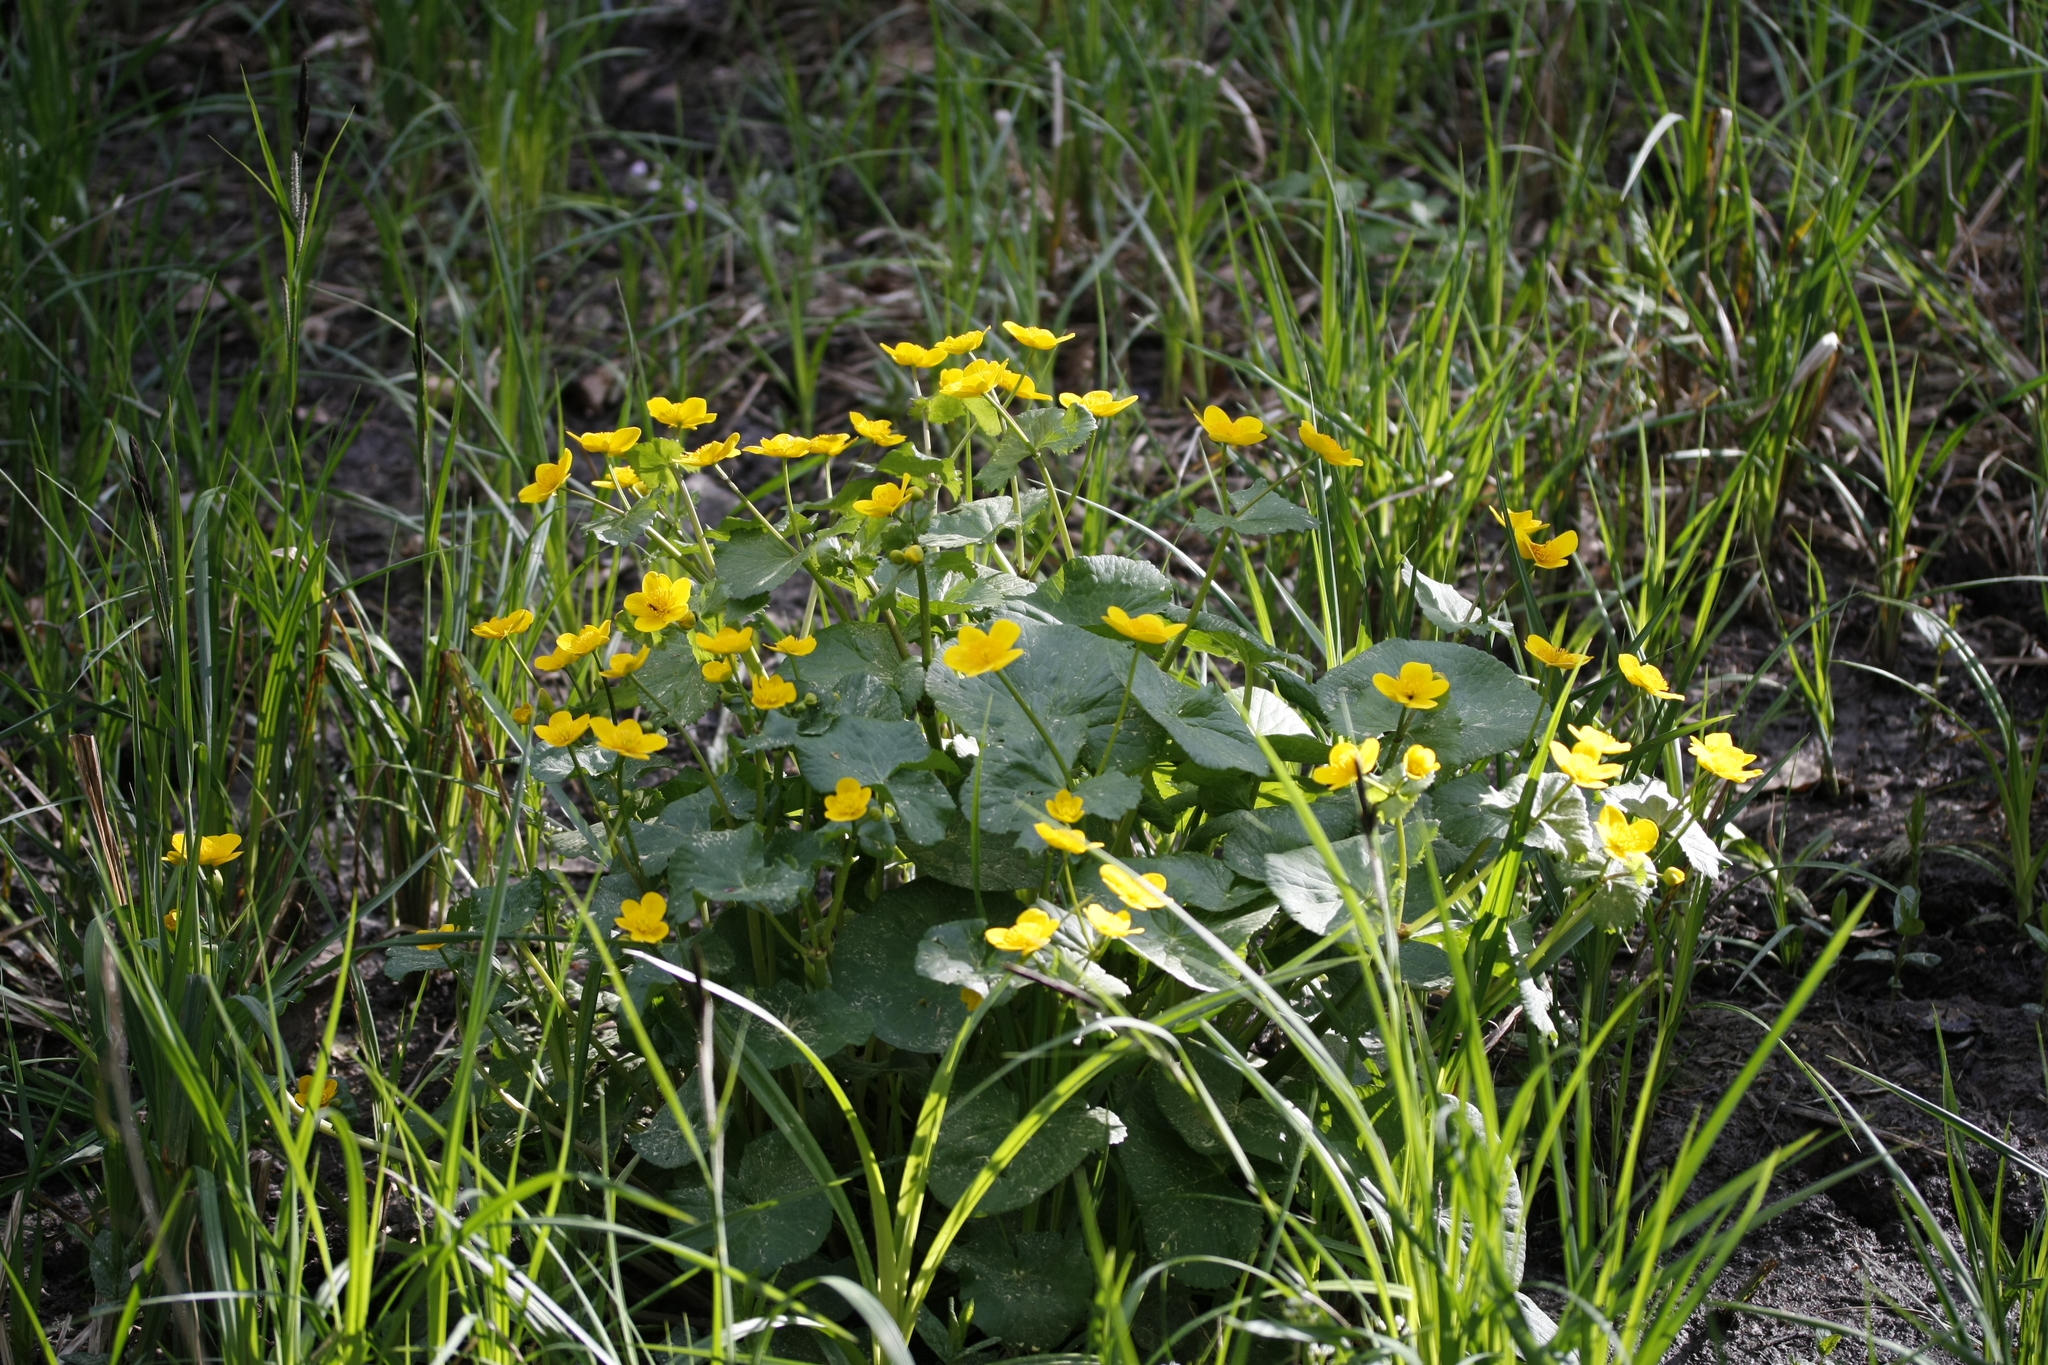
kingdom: Plantae
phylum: Tracheophyta
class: Magnoliopsida
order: Ranunculales
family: Ranunculaceae
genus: Caltha
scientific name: Caltha palustris
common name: Marsh marigold
